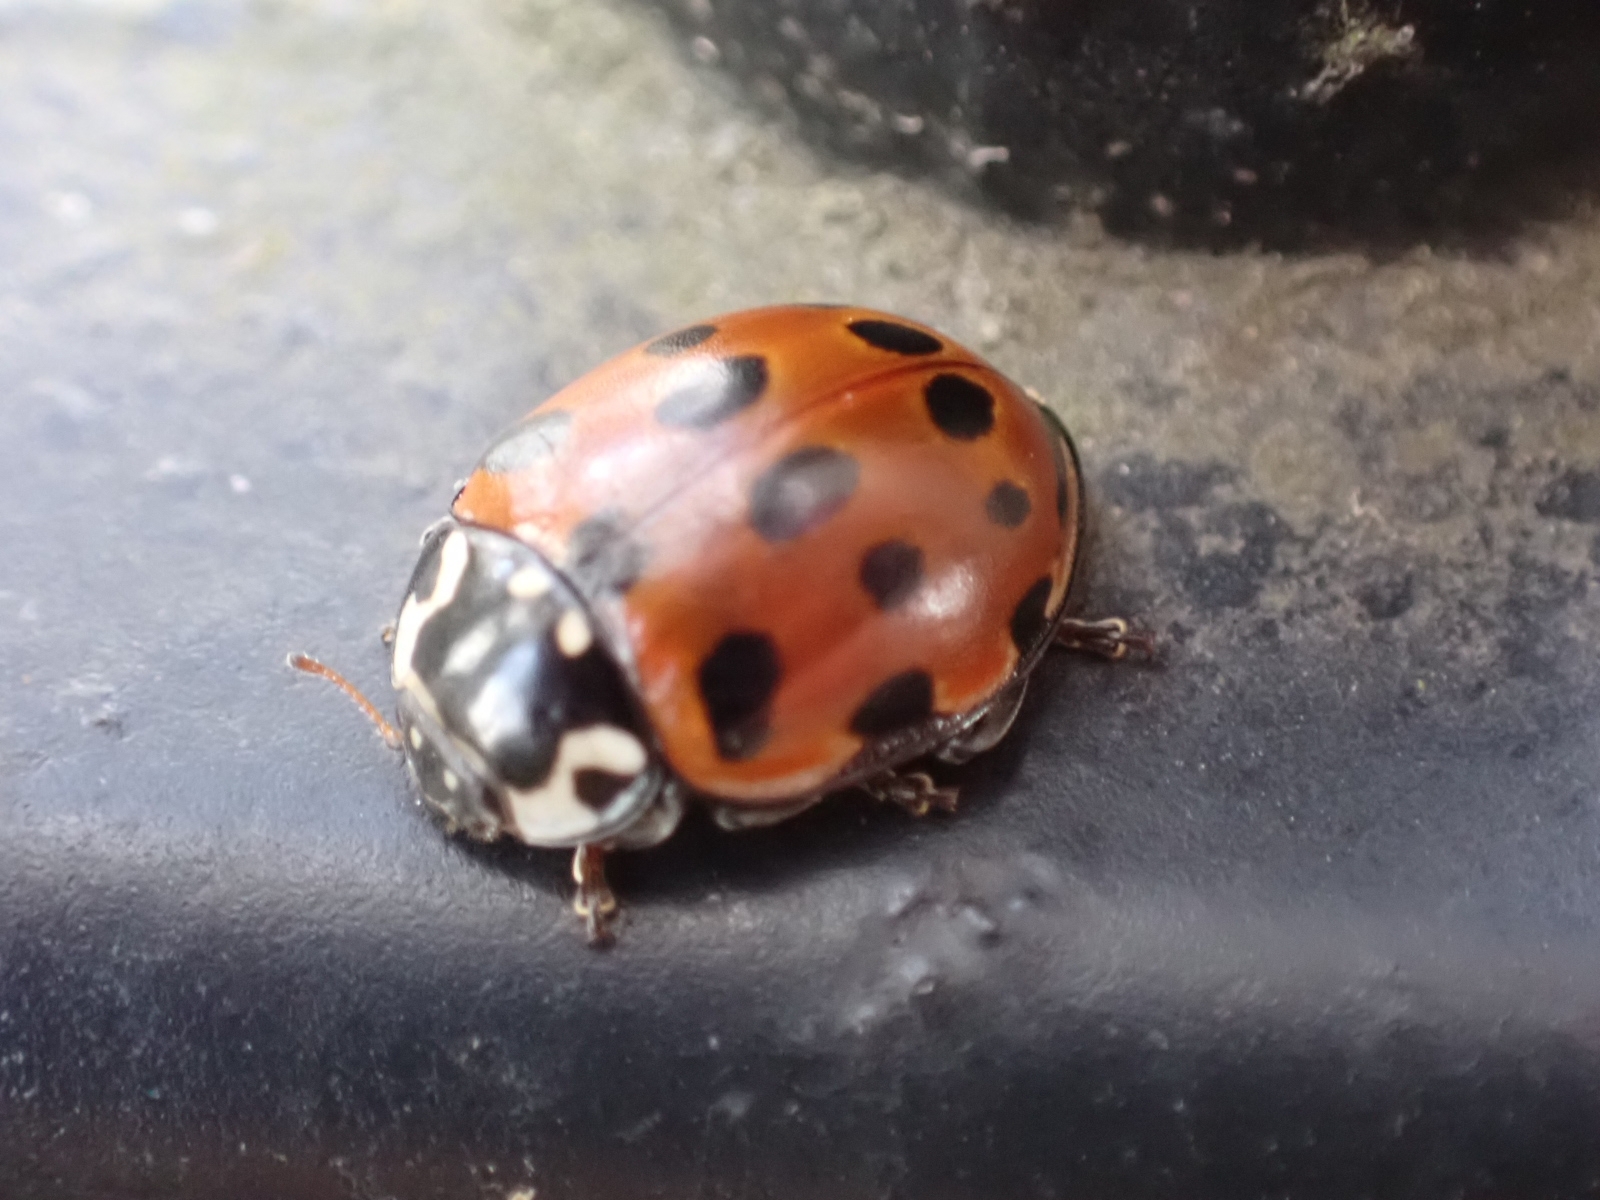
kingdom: Animalia
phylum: Arthropoda
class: Insecta
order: Coleoptera
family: Coccinellidae
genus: Anatis
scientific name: Anatis ocellata
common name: Eyed ladybird
